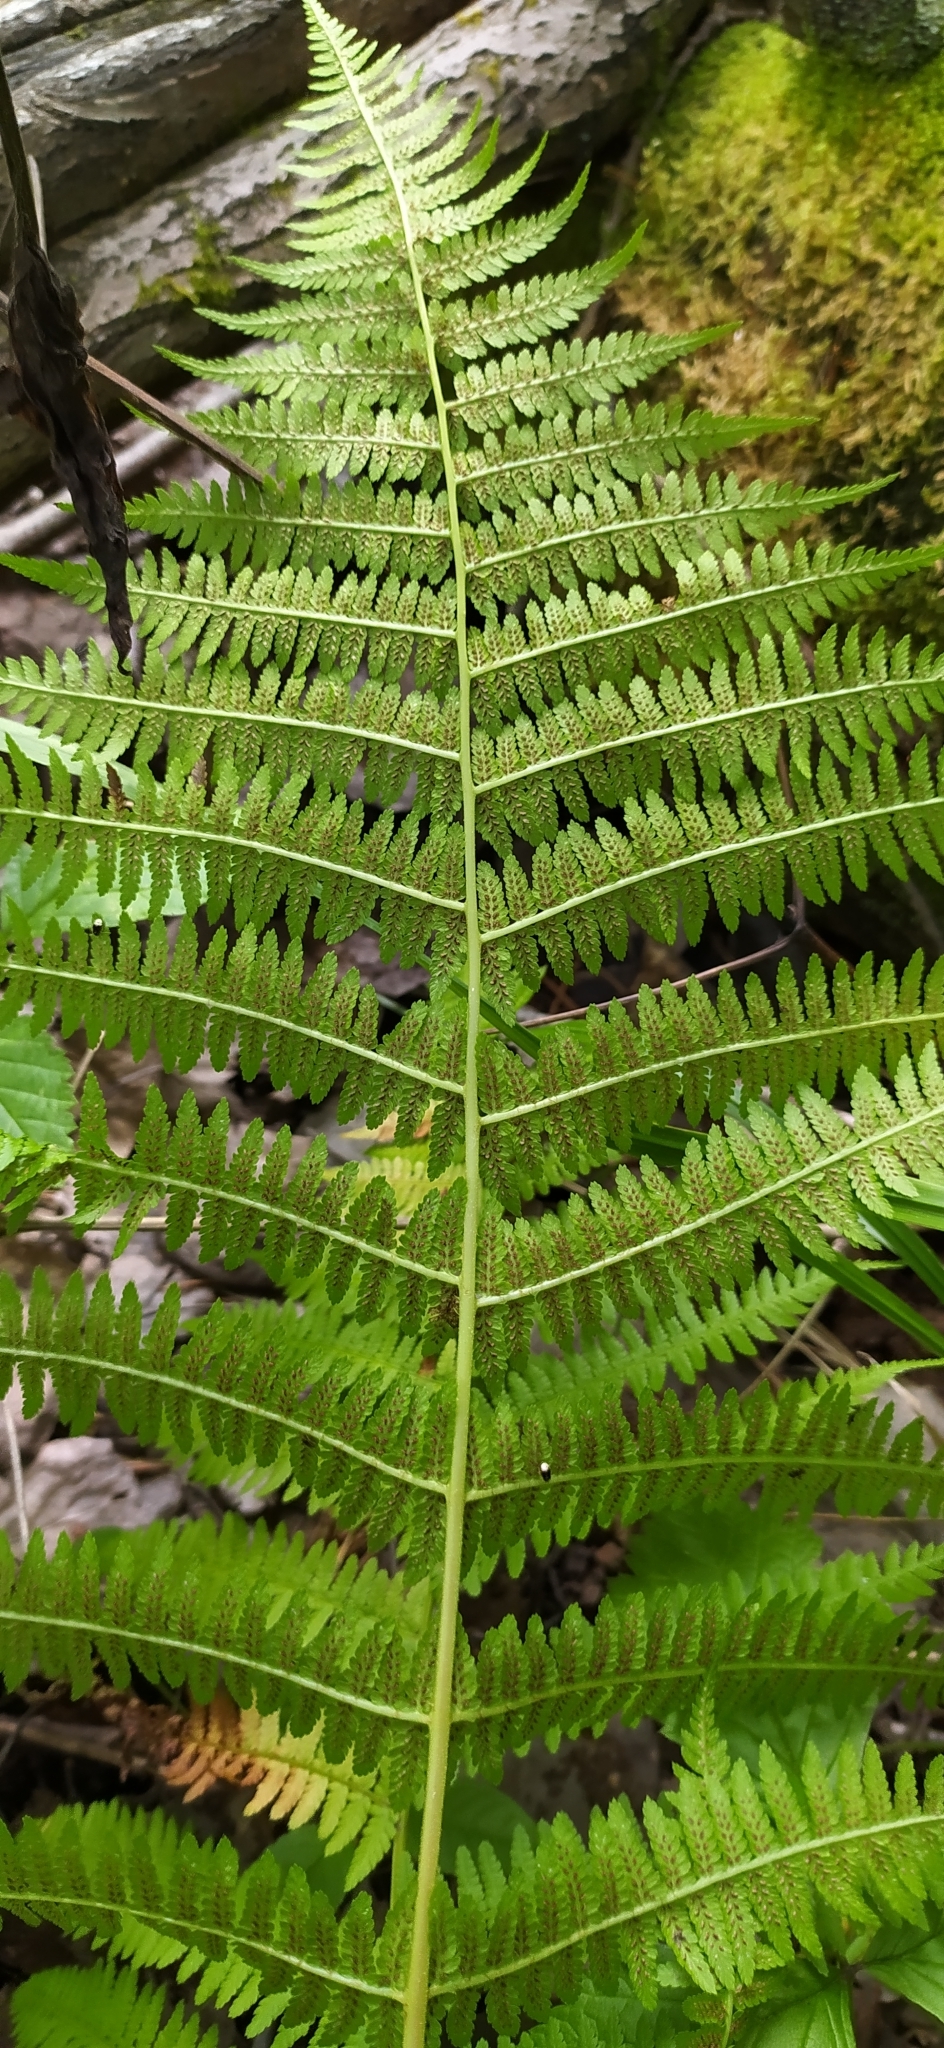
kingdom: Plantae
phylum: Tracheophyta
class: Polypodiopsida
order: Polypodiales
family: Athyriaceae
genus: Athyrium
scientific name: Athyrium filix-femina
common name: Lady fern
